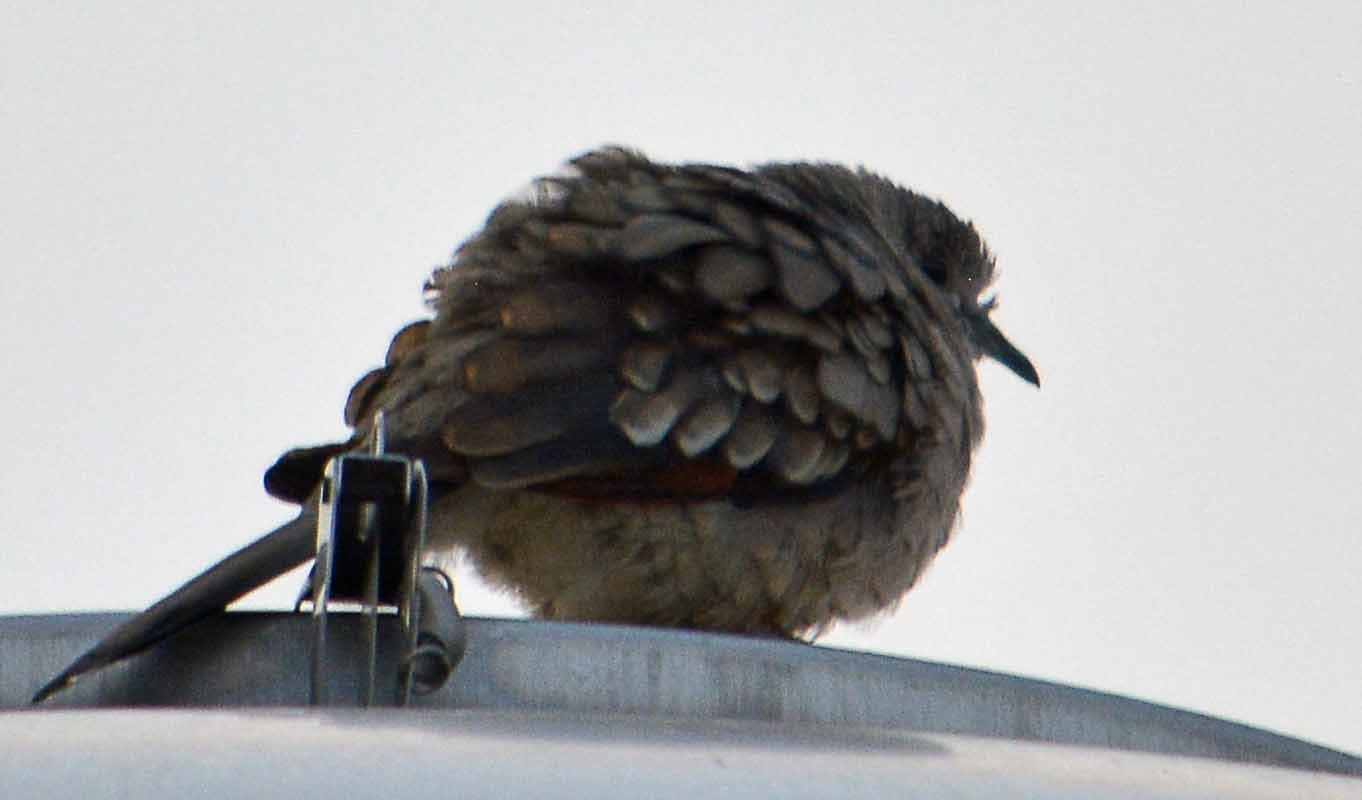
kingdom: Animalia
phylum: Chordata
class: Aves
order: Columbiformes
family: Columbidae
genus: Columbina
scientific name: Columbina inca
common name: Inca dove
